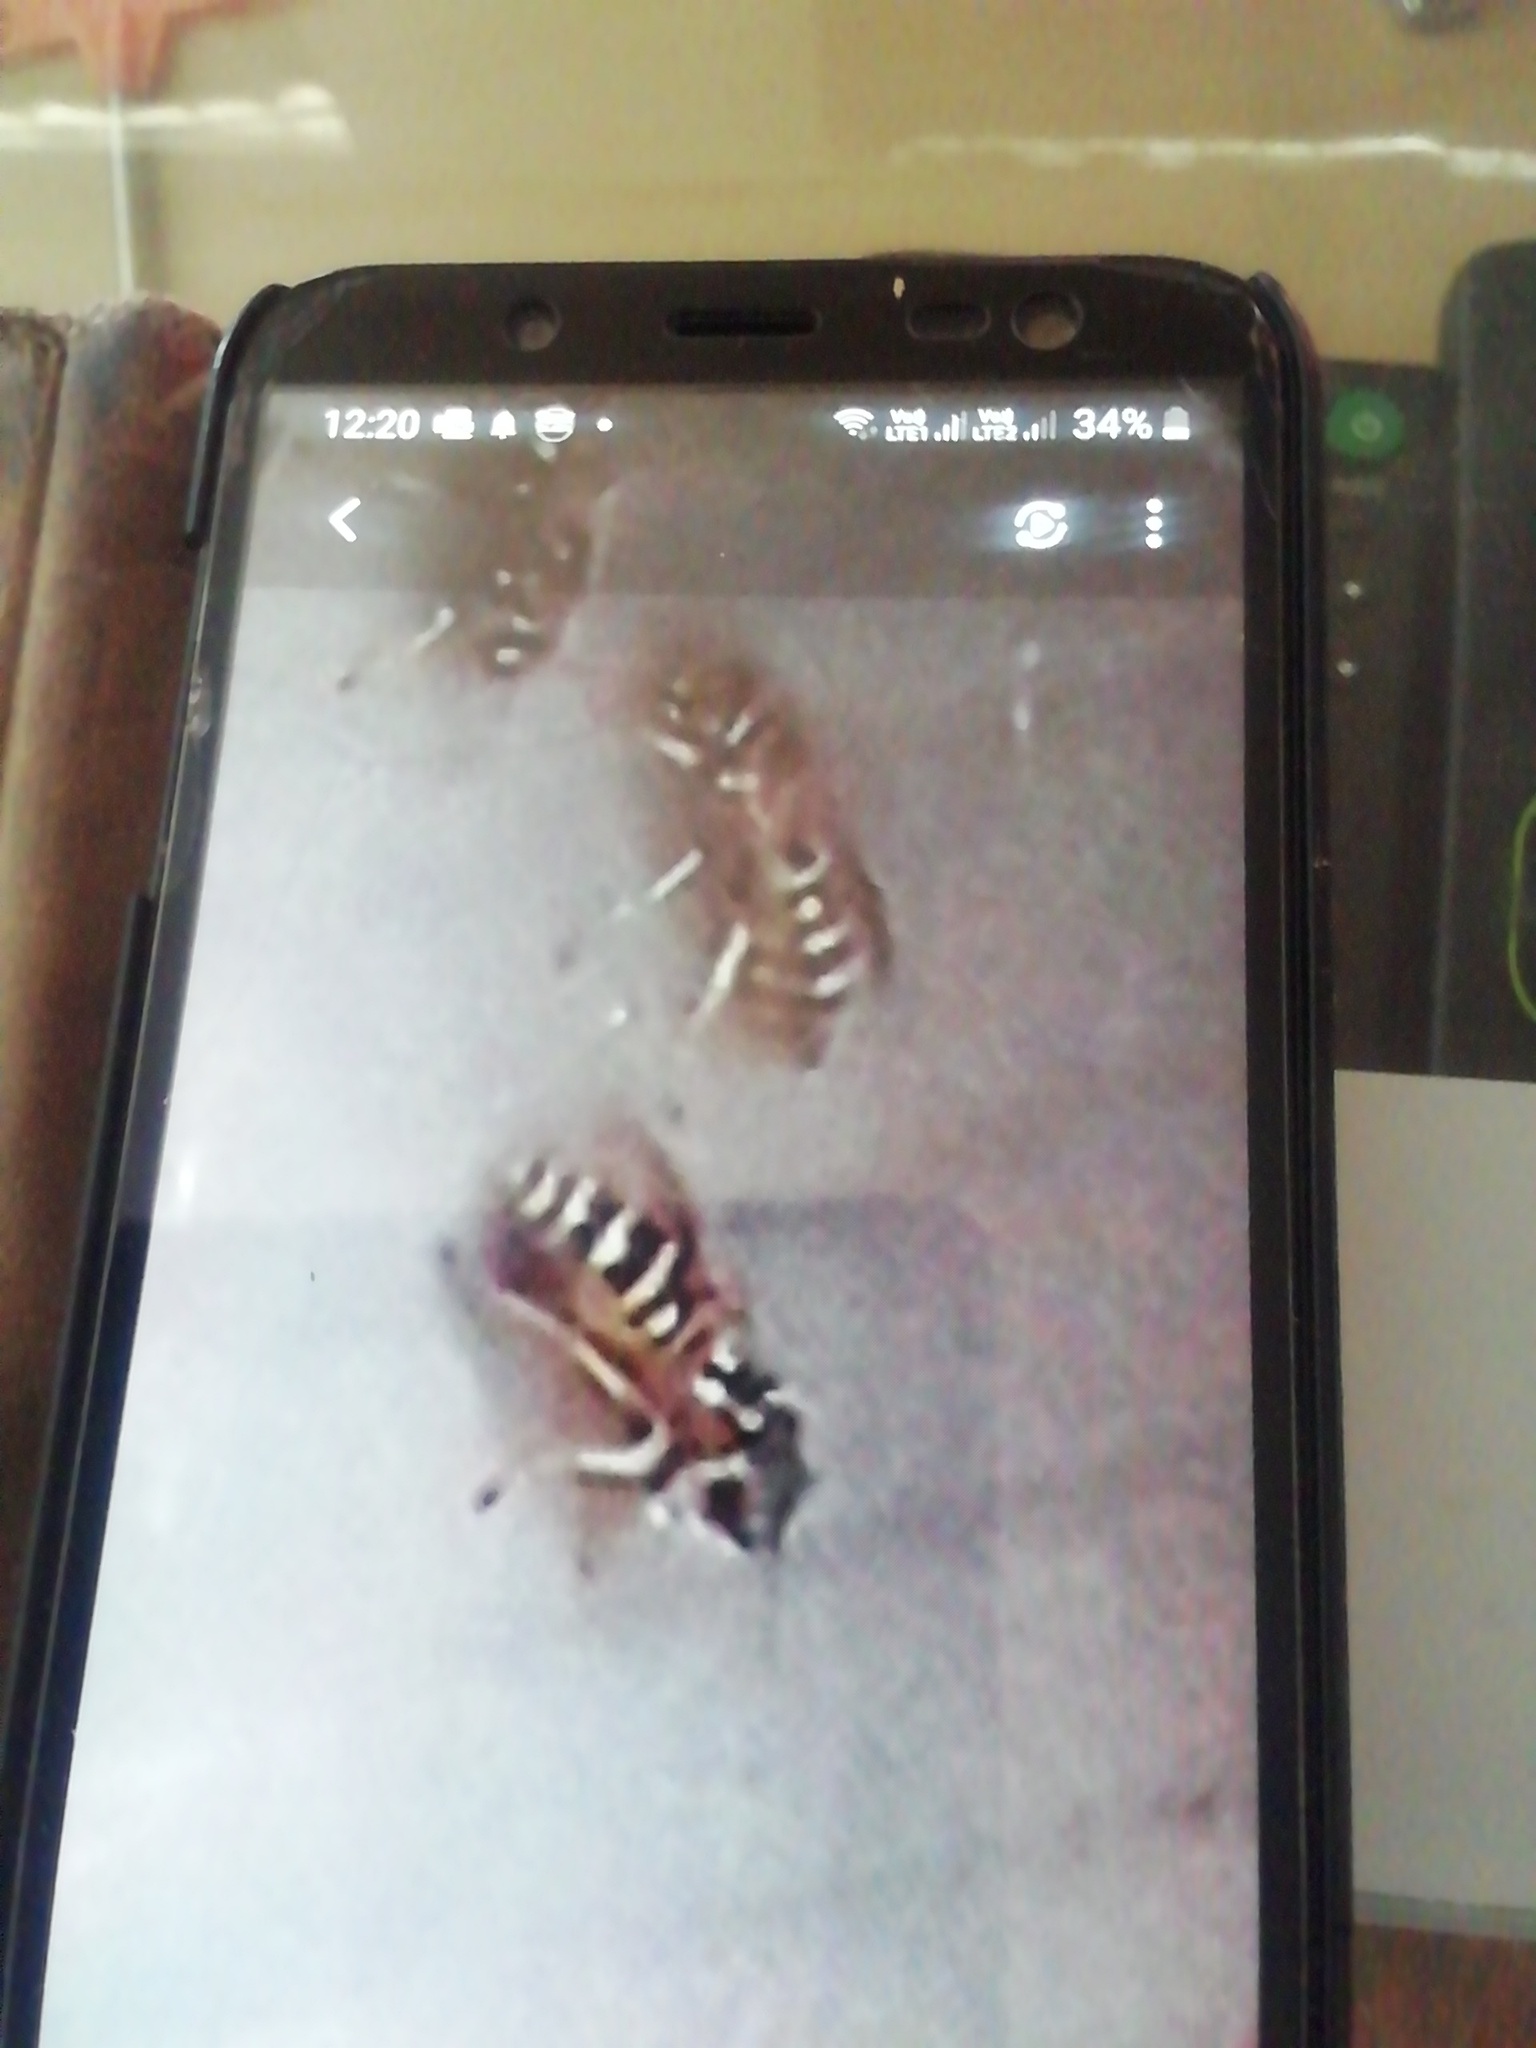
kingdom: Animalia
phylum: Arthropoda
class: Insecta
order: Hymenoptera
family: Eumenidae
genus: Polistes
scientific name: Polistes
